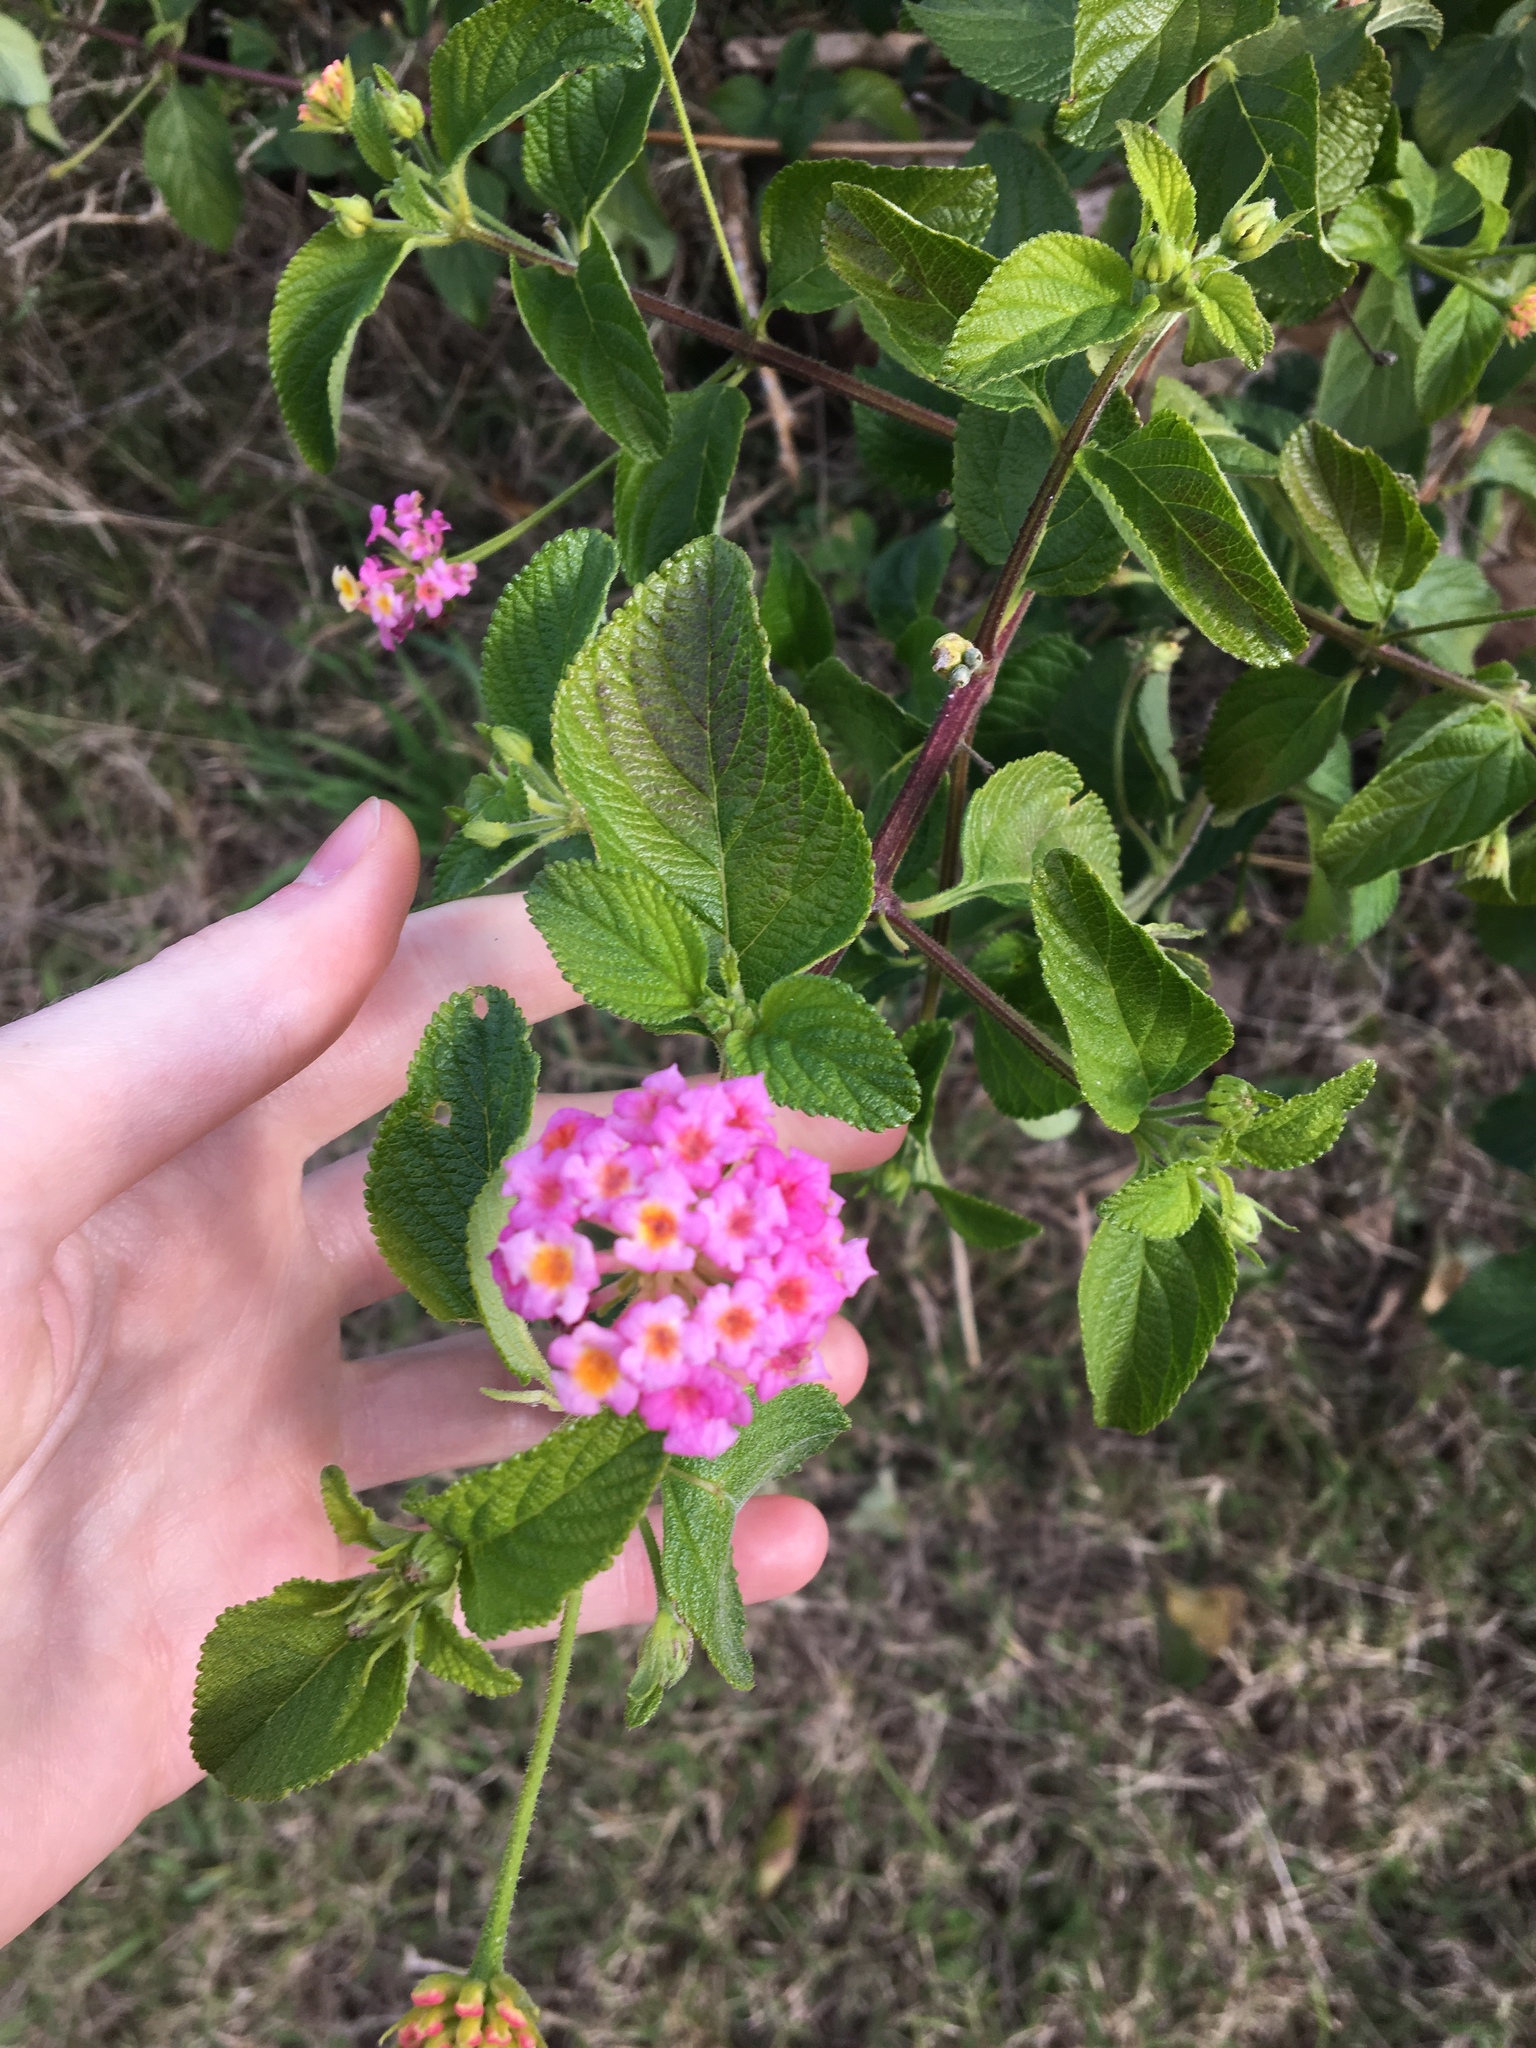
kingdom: Plantae
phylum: Tracheophyta
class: Magnoliopsida
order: Lamiales
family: Verbenaceae
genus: Lantana
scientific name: Lantana camara
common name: Lantana
